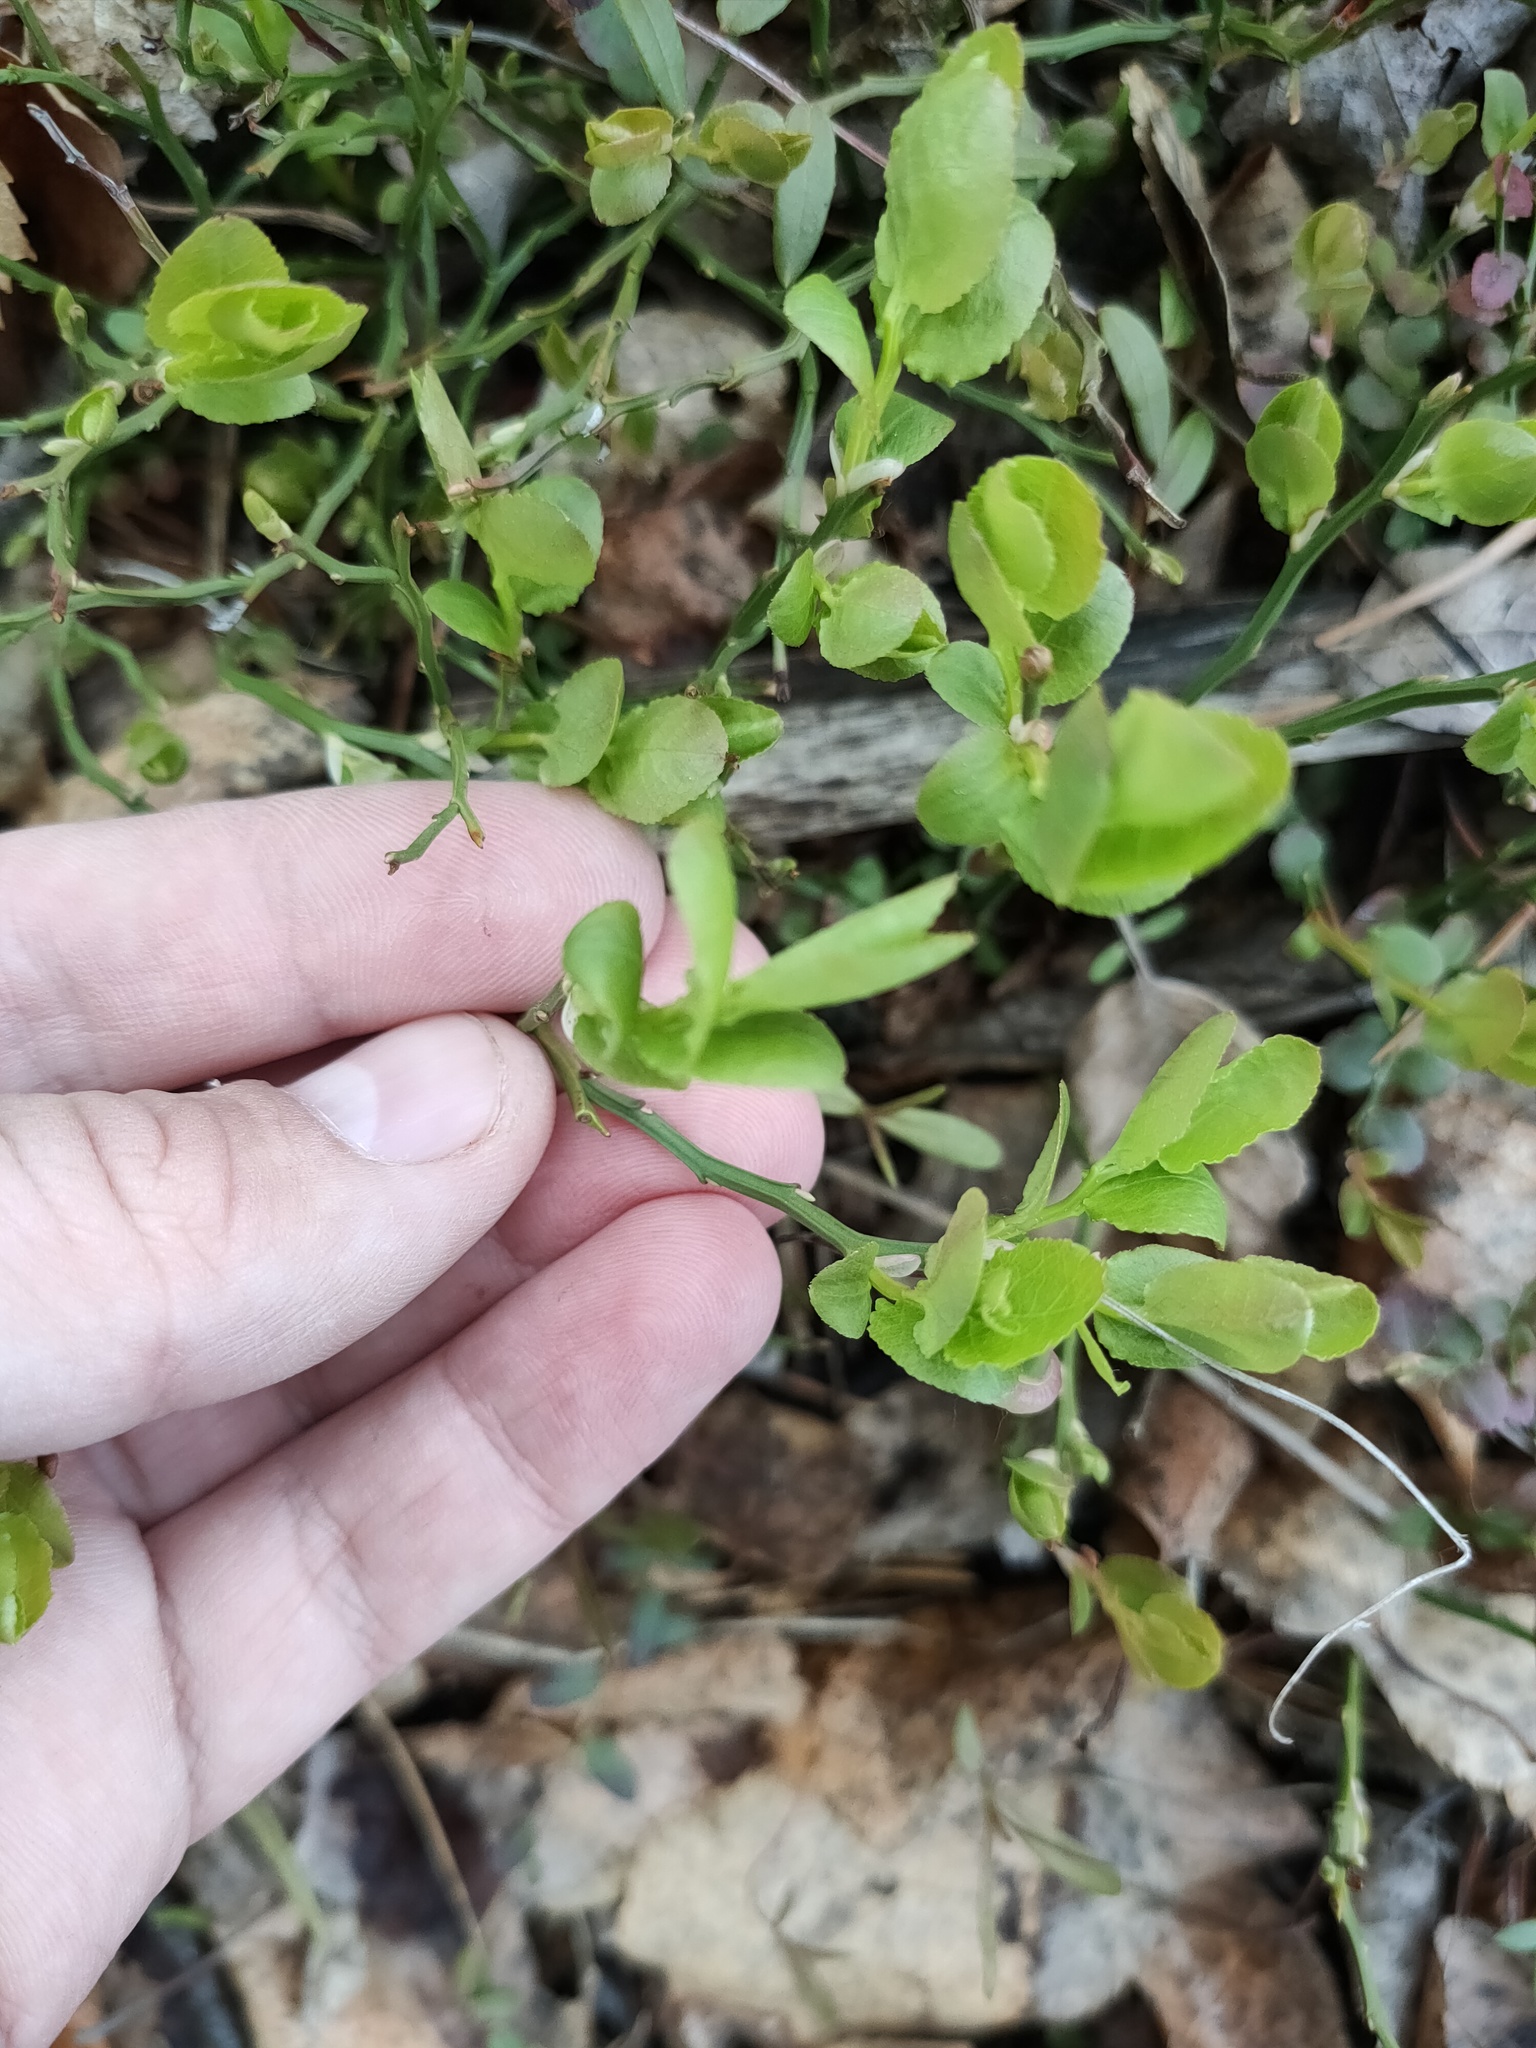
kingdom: Plantae
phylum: Tracheophyta
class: Magnoliopsida
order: Ericales
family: Ericaceae
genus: Vaccinium
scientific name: Vaccinium myrtillus
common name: Bilberry
